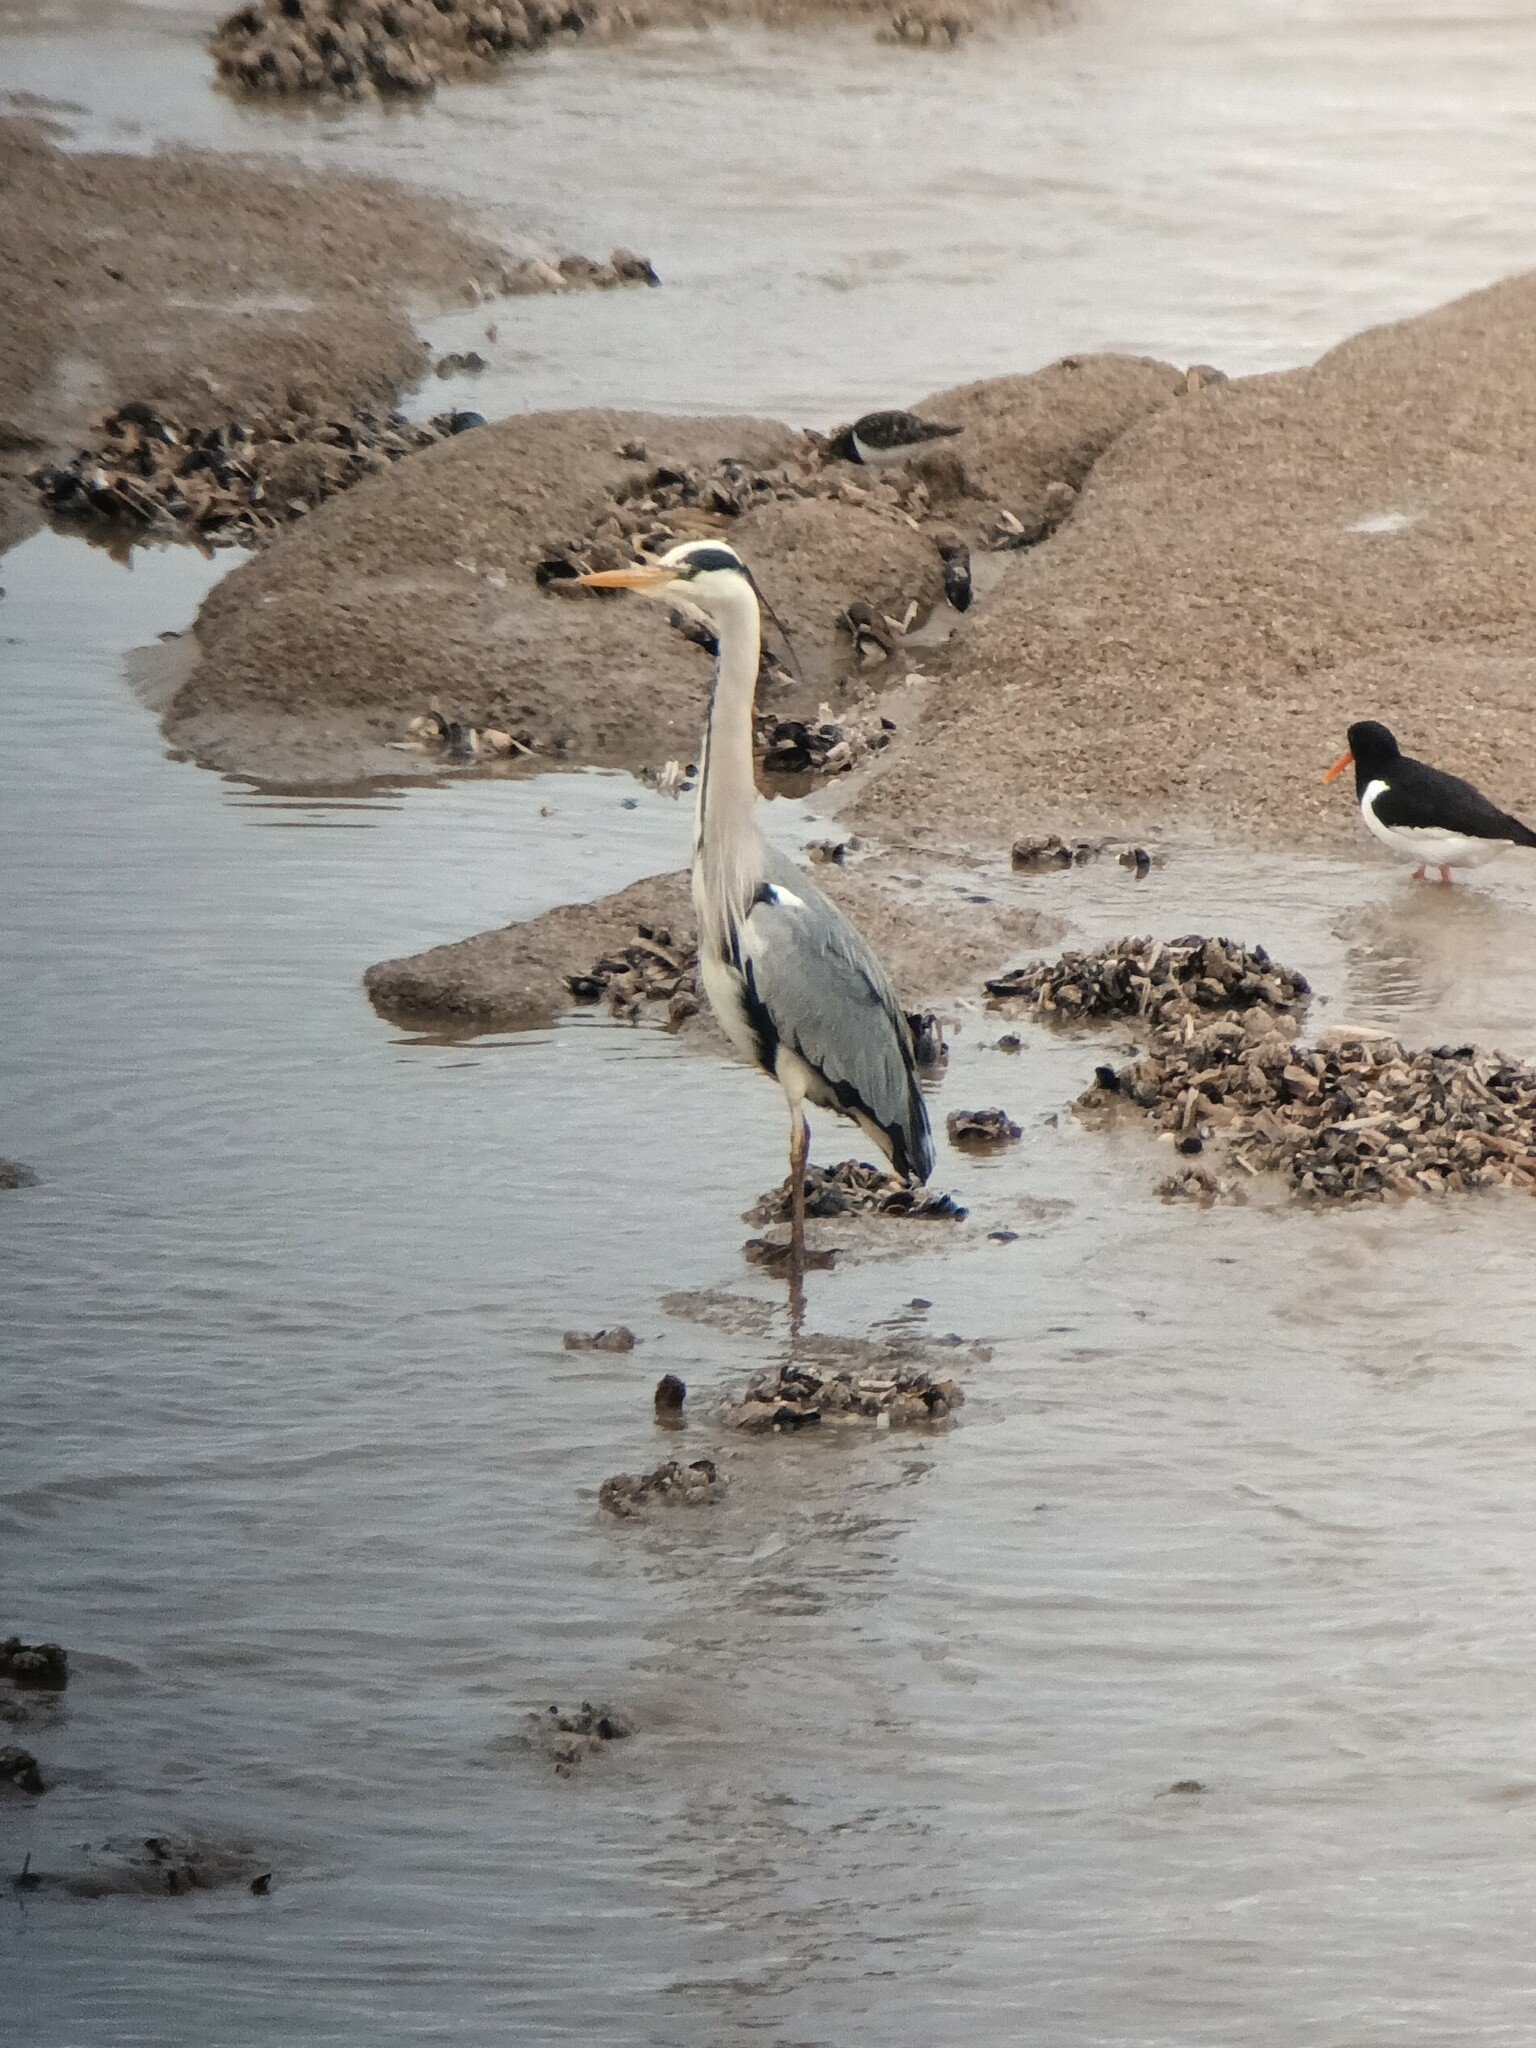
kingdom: Animalia
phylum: Chordata
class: Aves
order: Pelecaniformes
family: Ardeidae
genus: Ardea
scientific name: Ardea cinerea
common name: Grey heron
